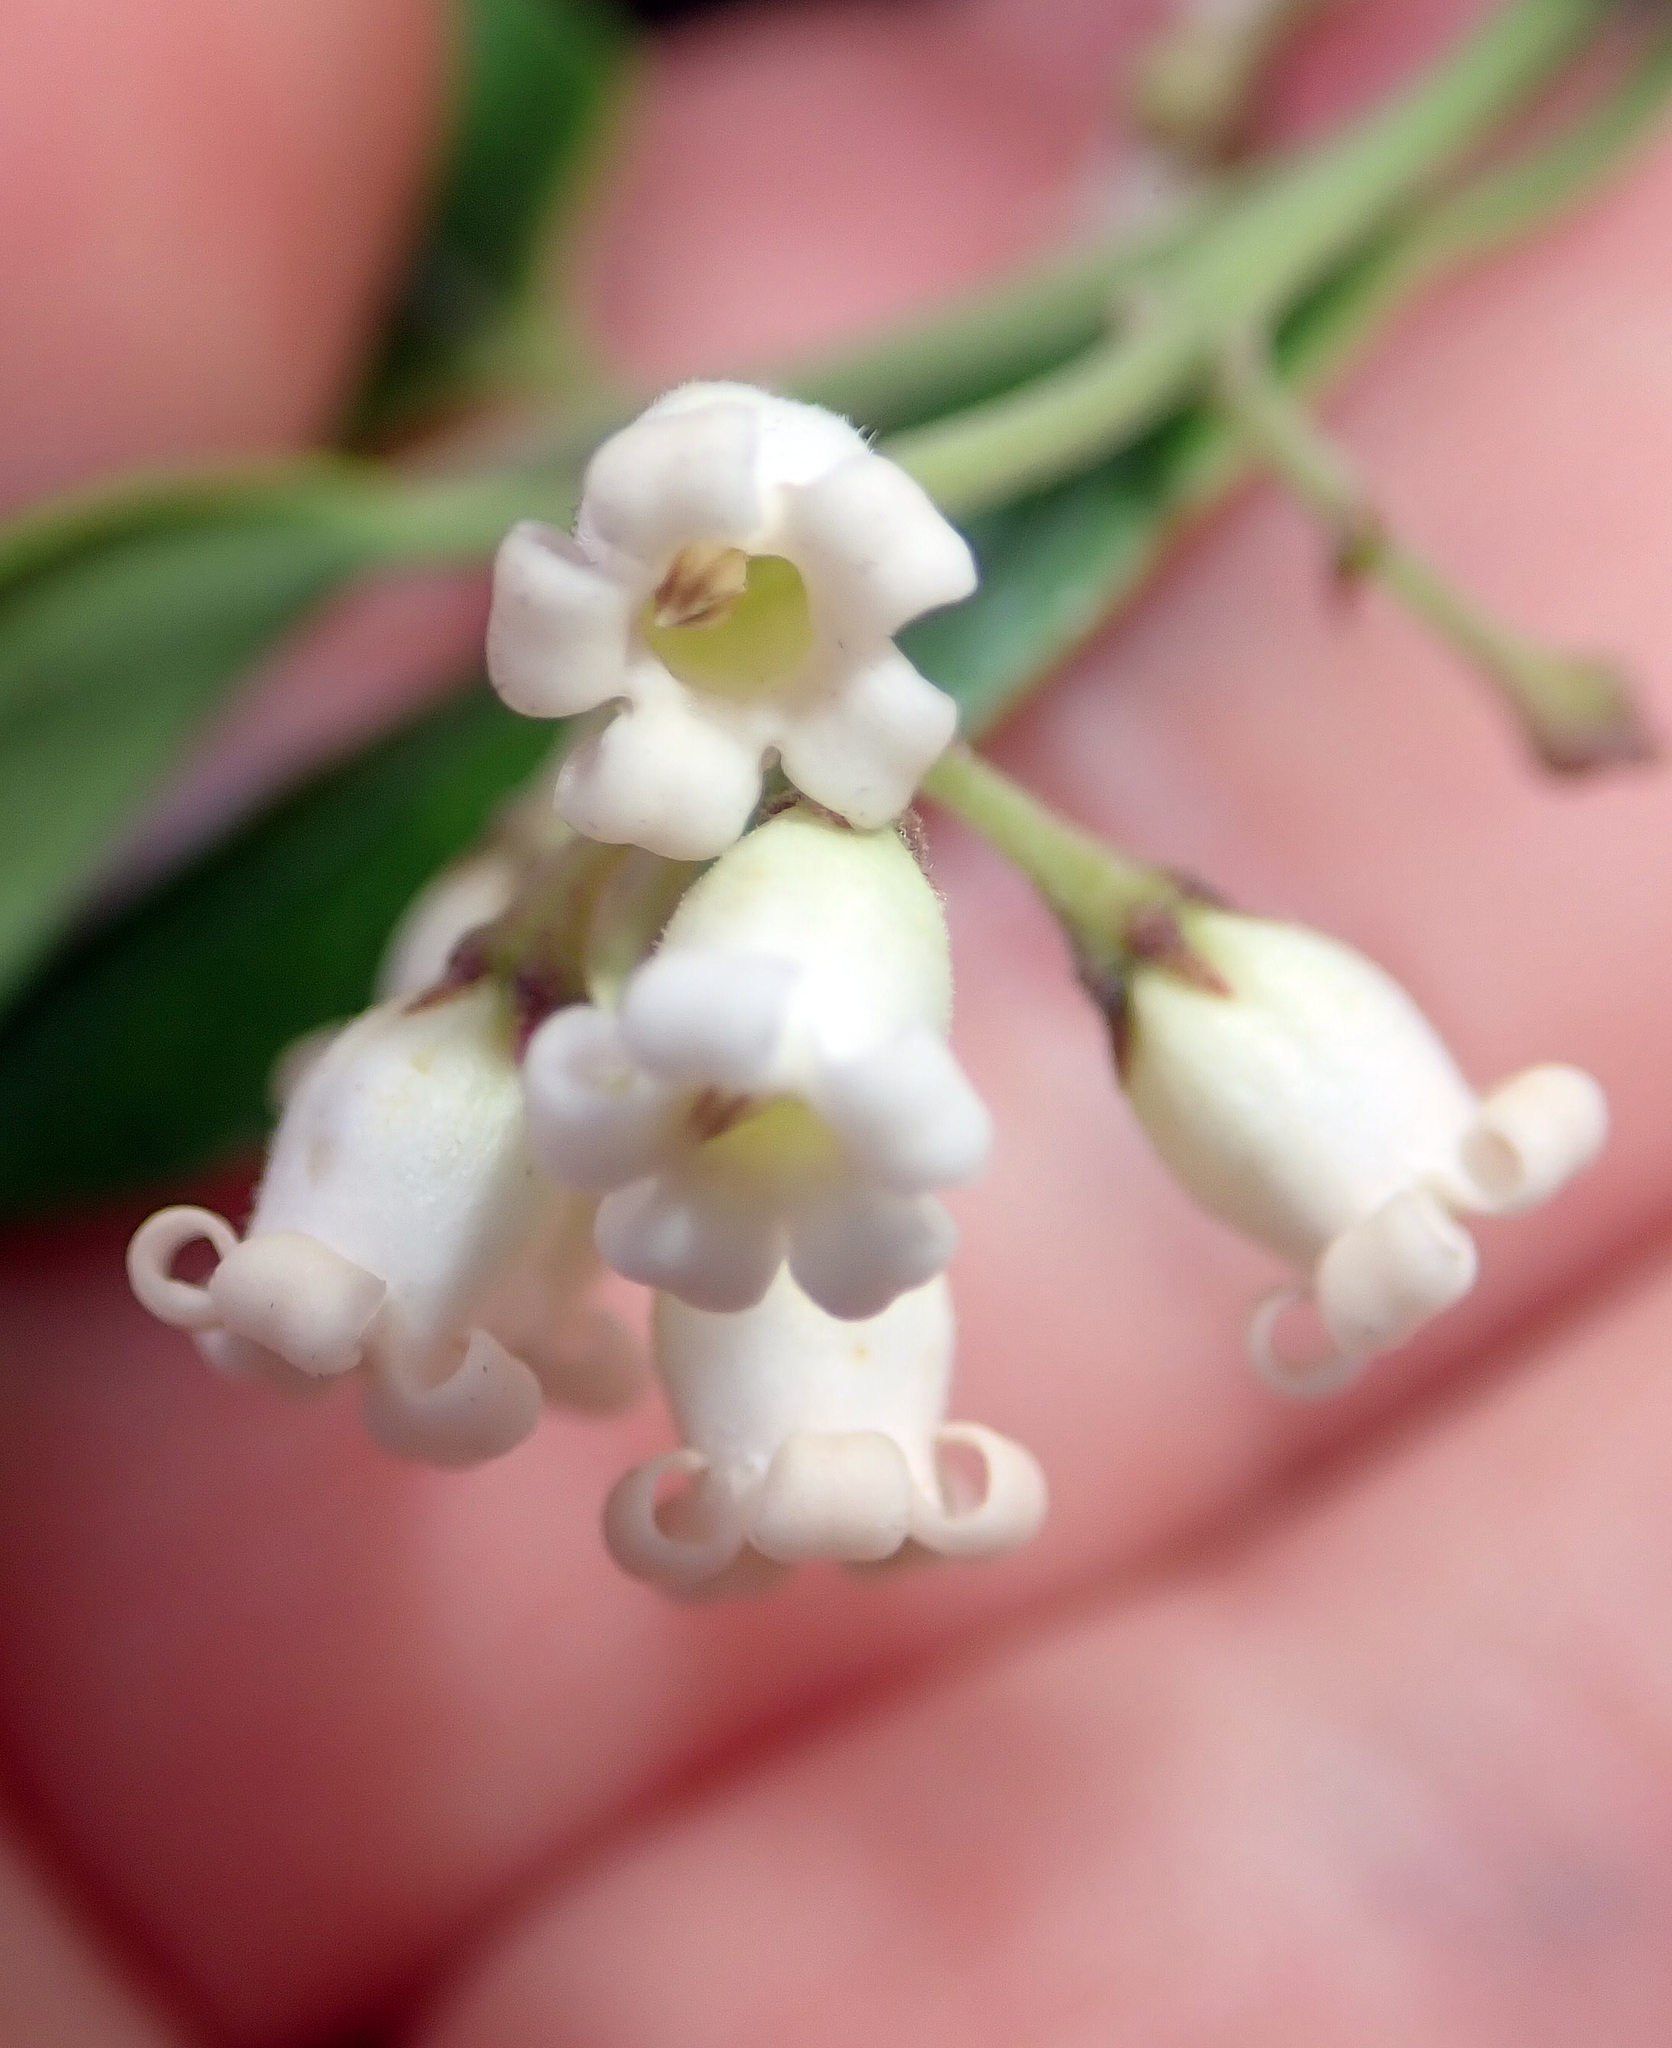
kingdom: Plantae
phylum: Tracheophyta
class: Magnoliopsida
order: Gentianales
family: Apocynaceae
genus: Parsonsia
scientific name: Parsonsia heterophylla
